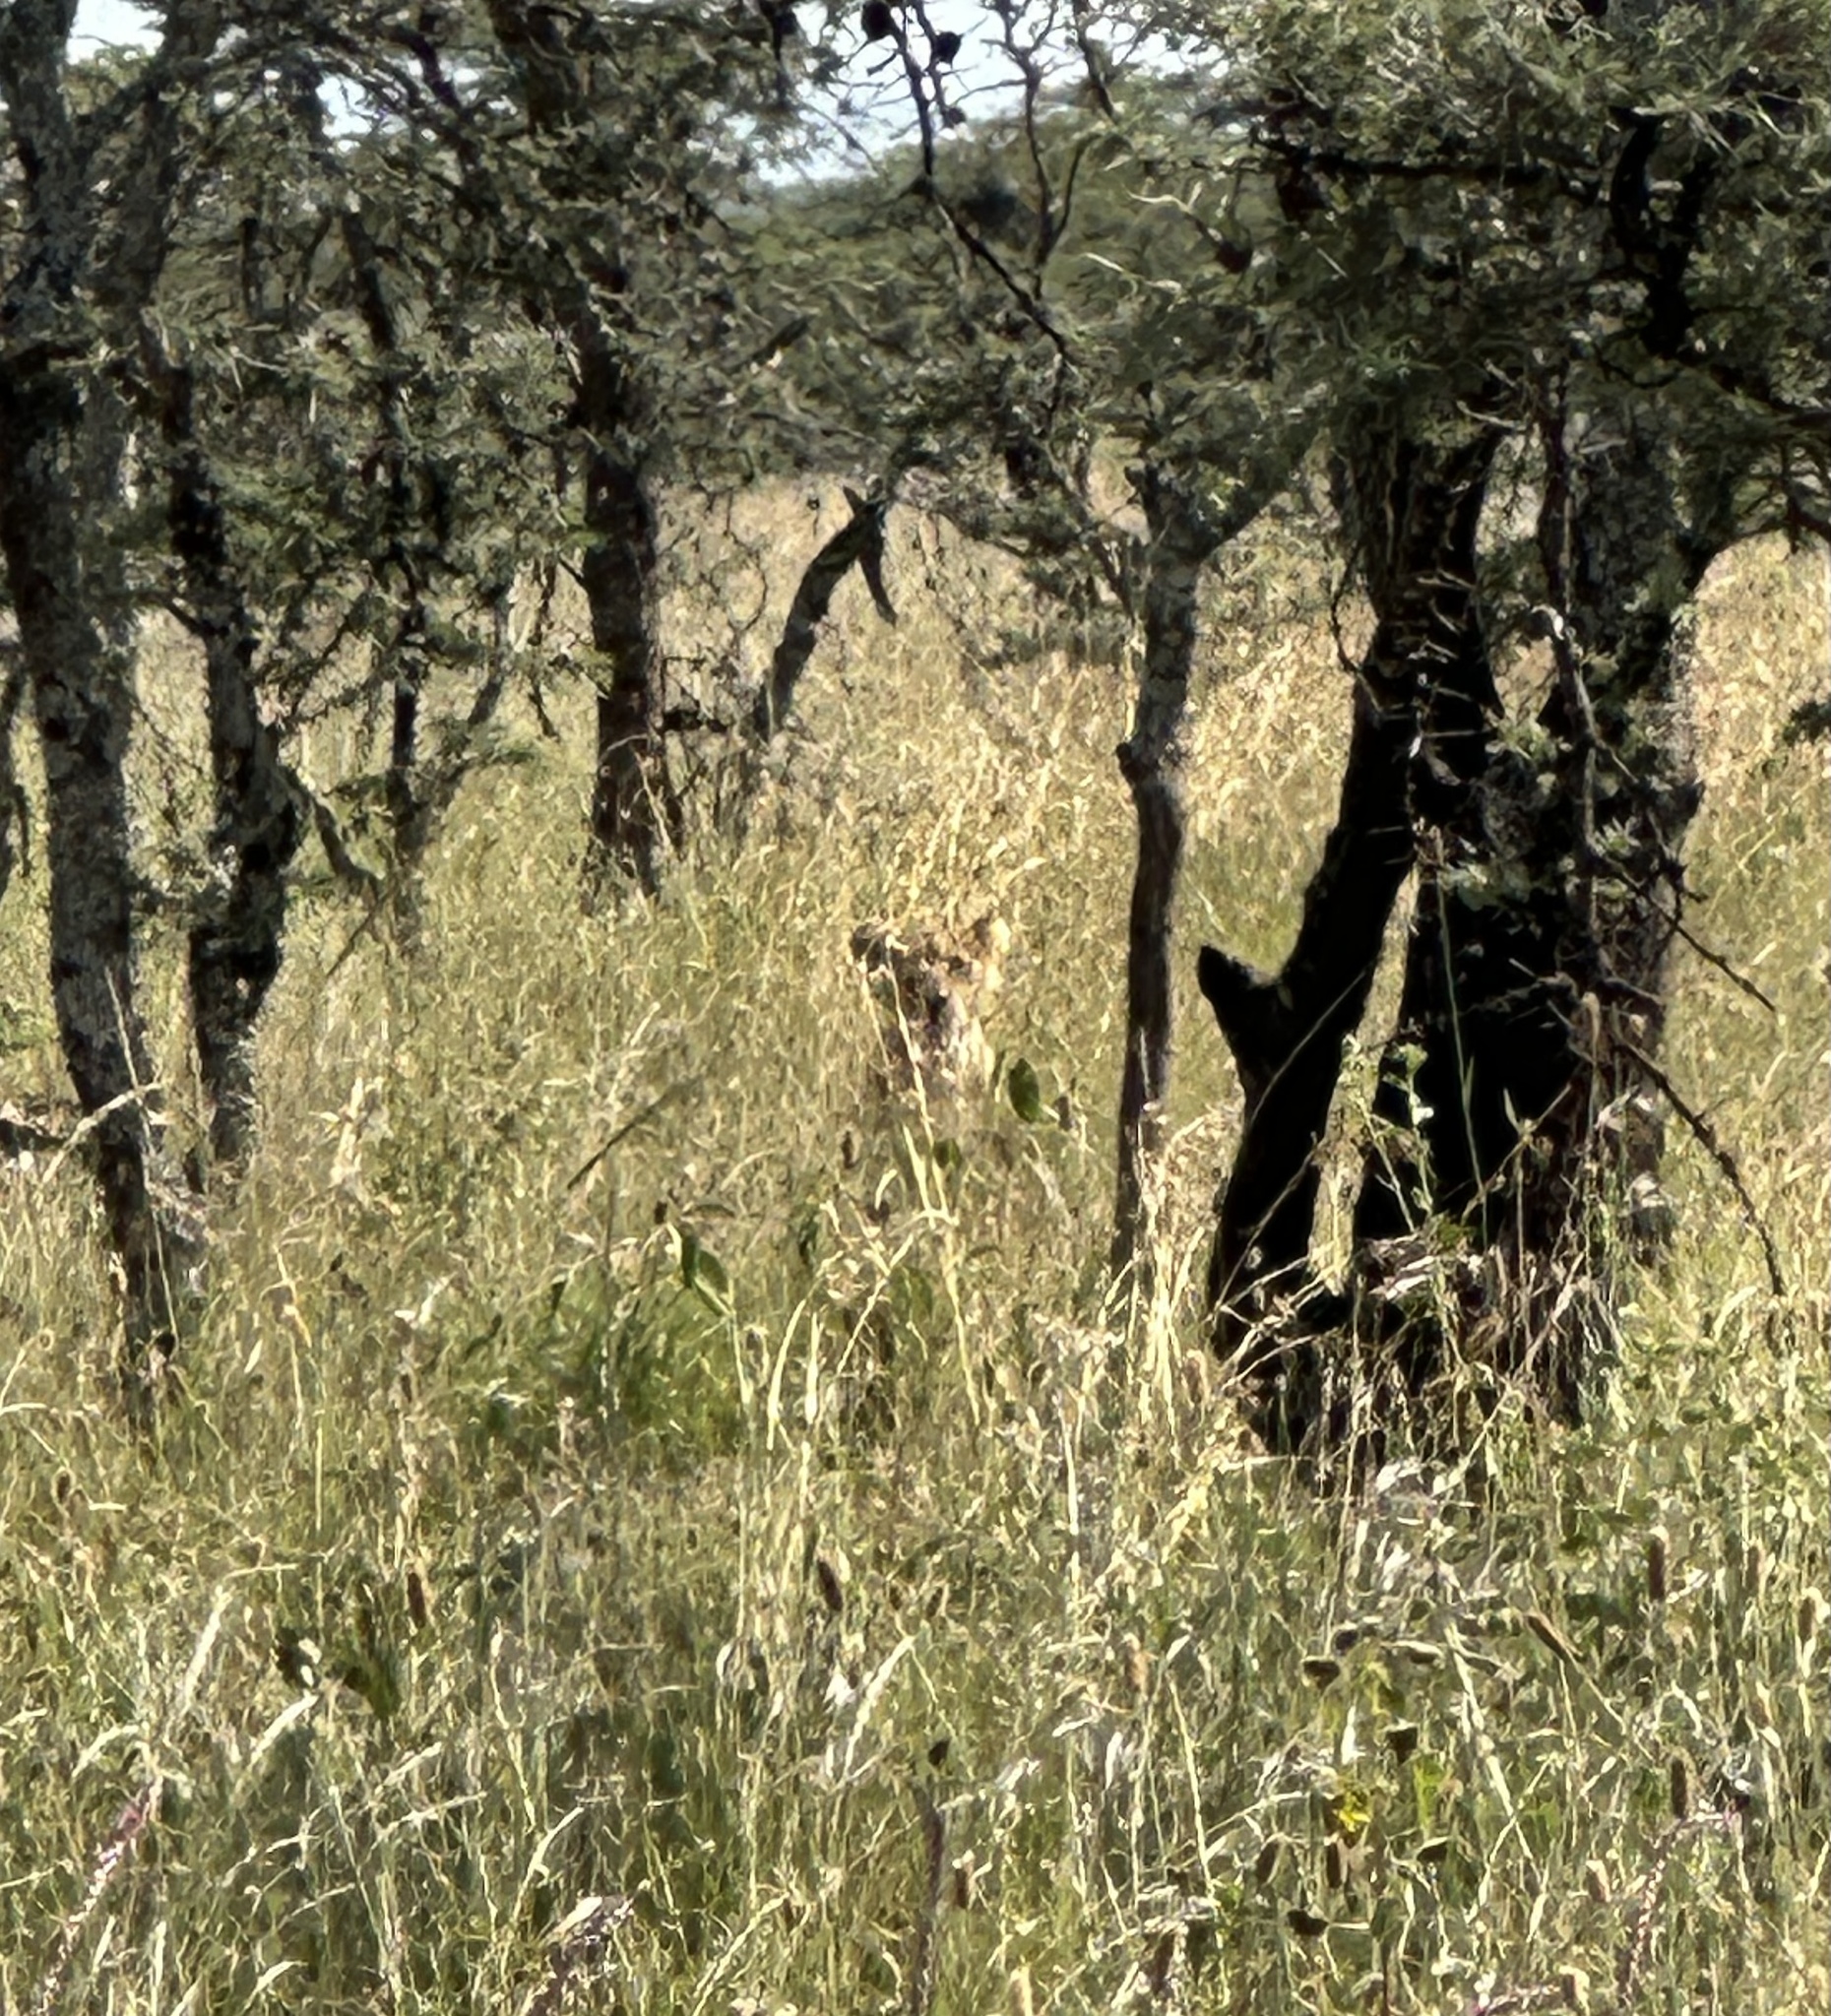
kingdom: Animalia
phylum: Chordata
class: Mammalia
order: Carnivora
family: Felidae
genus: Panthera
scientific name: Panthera leo
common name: Lion
